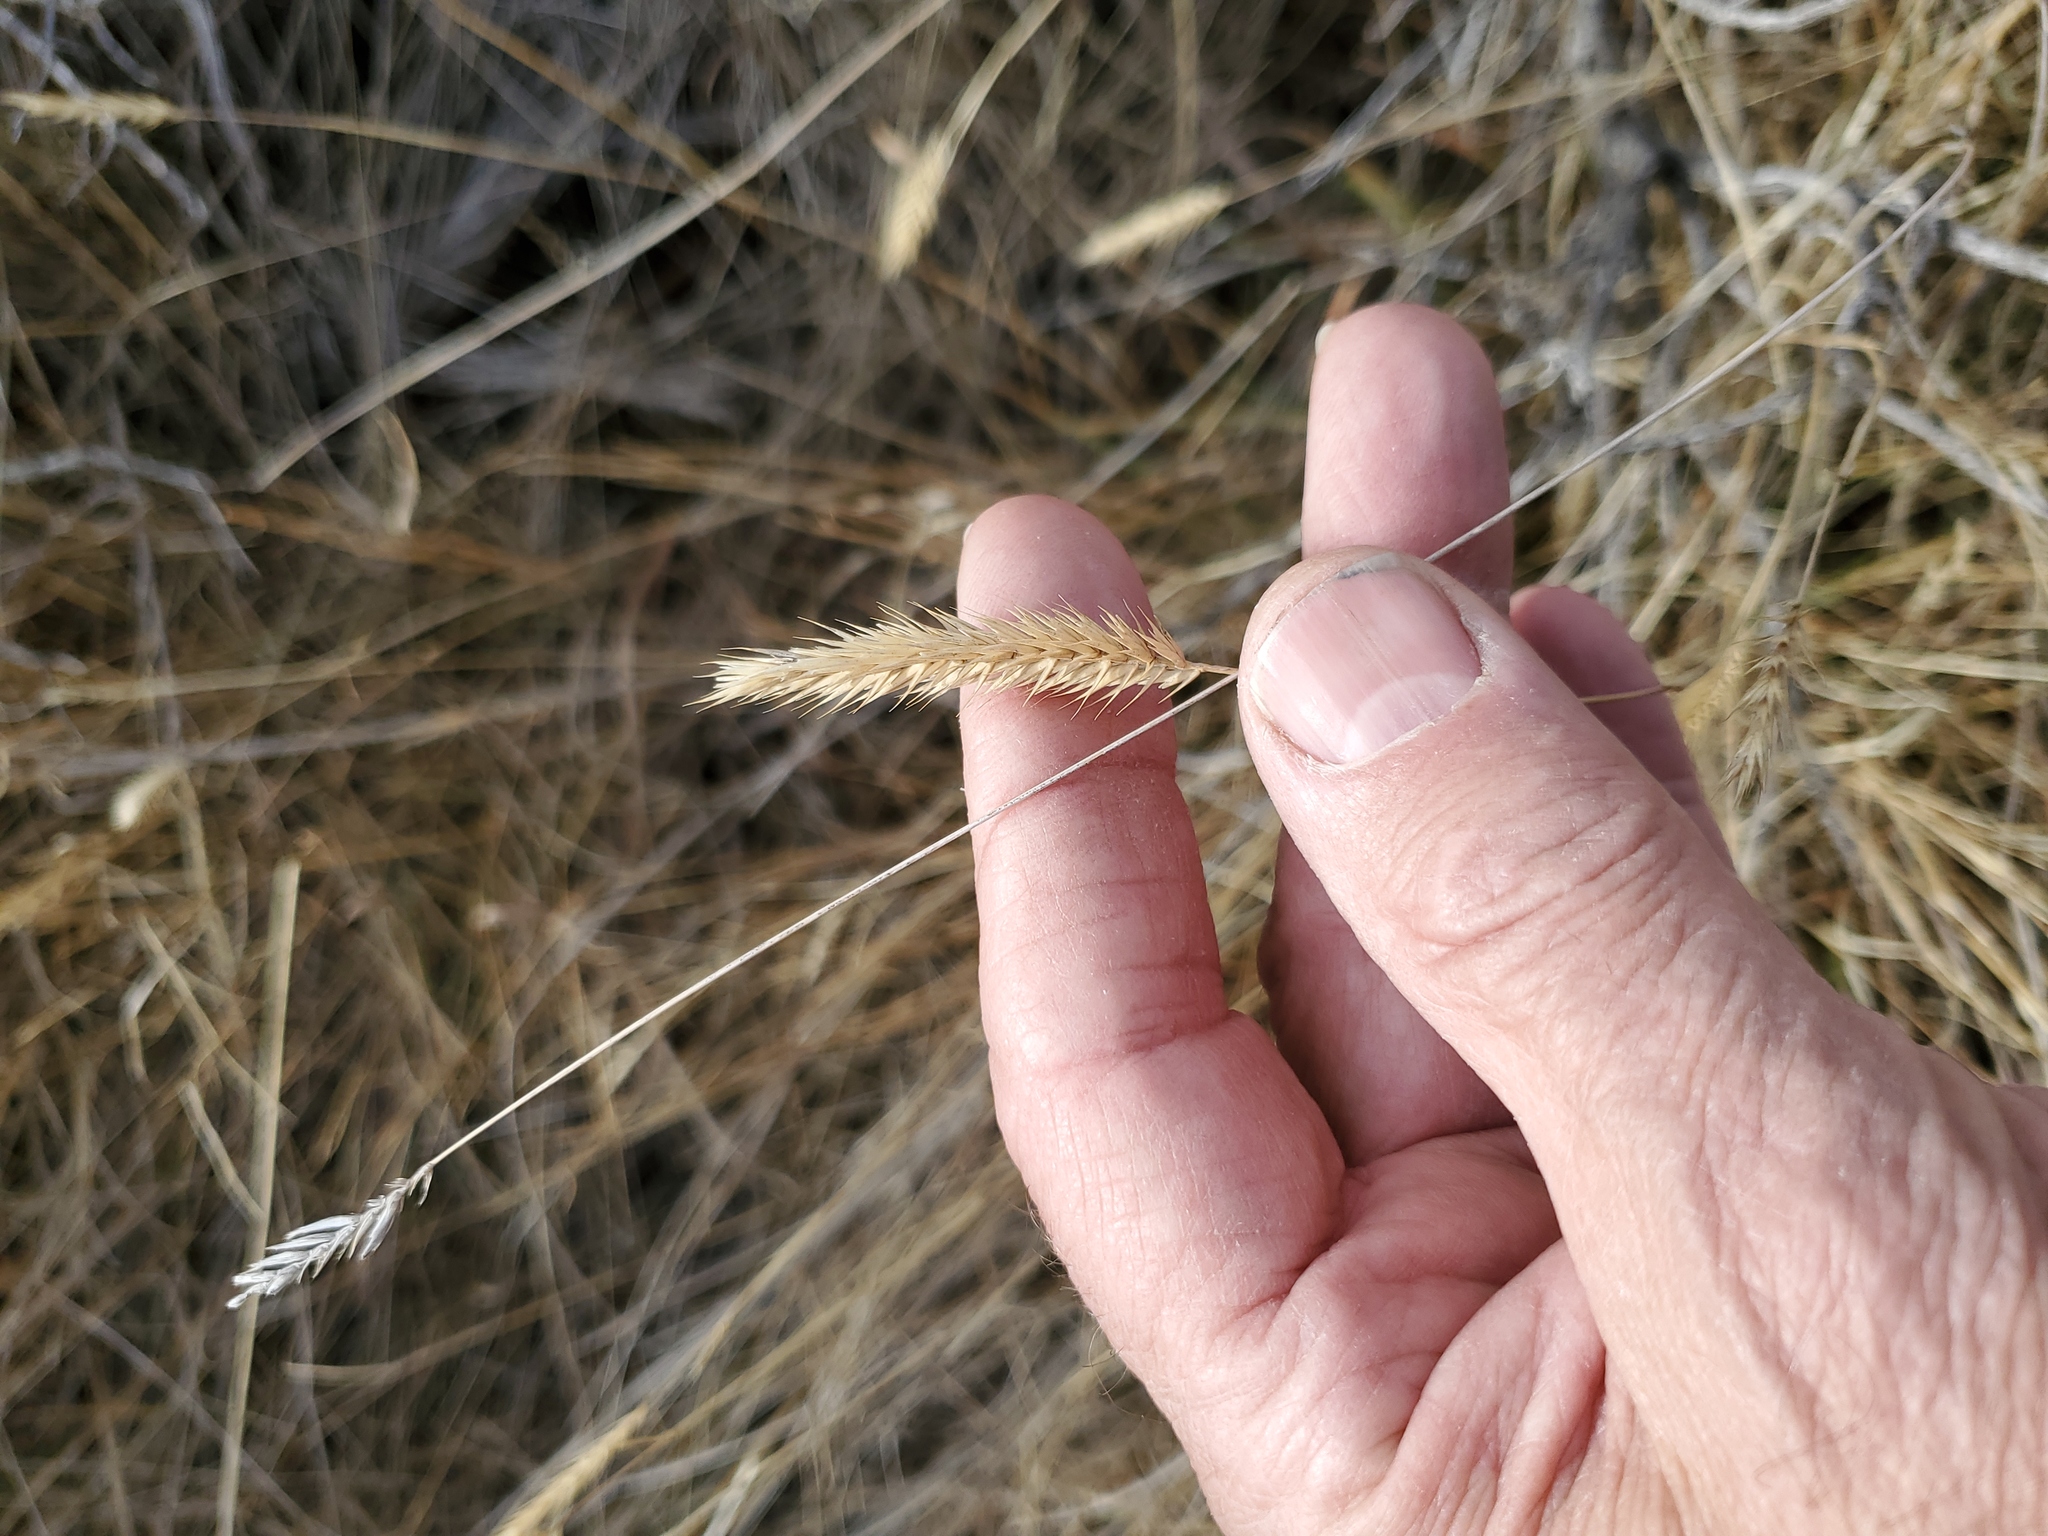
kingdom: Plantae
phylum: Tracheophyta
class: Liliopsida
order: Poales
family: Poaceae
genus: Agropyron
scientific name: Agropyron cristatum
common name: Crested wheatgrass
